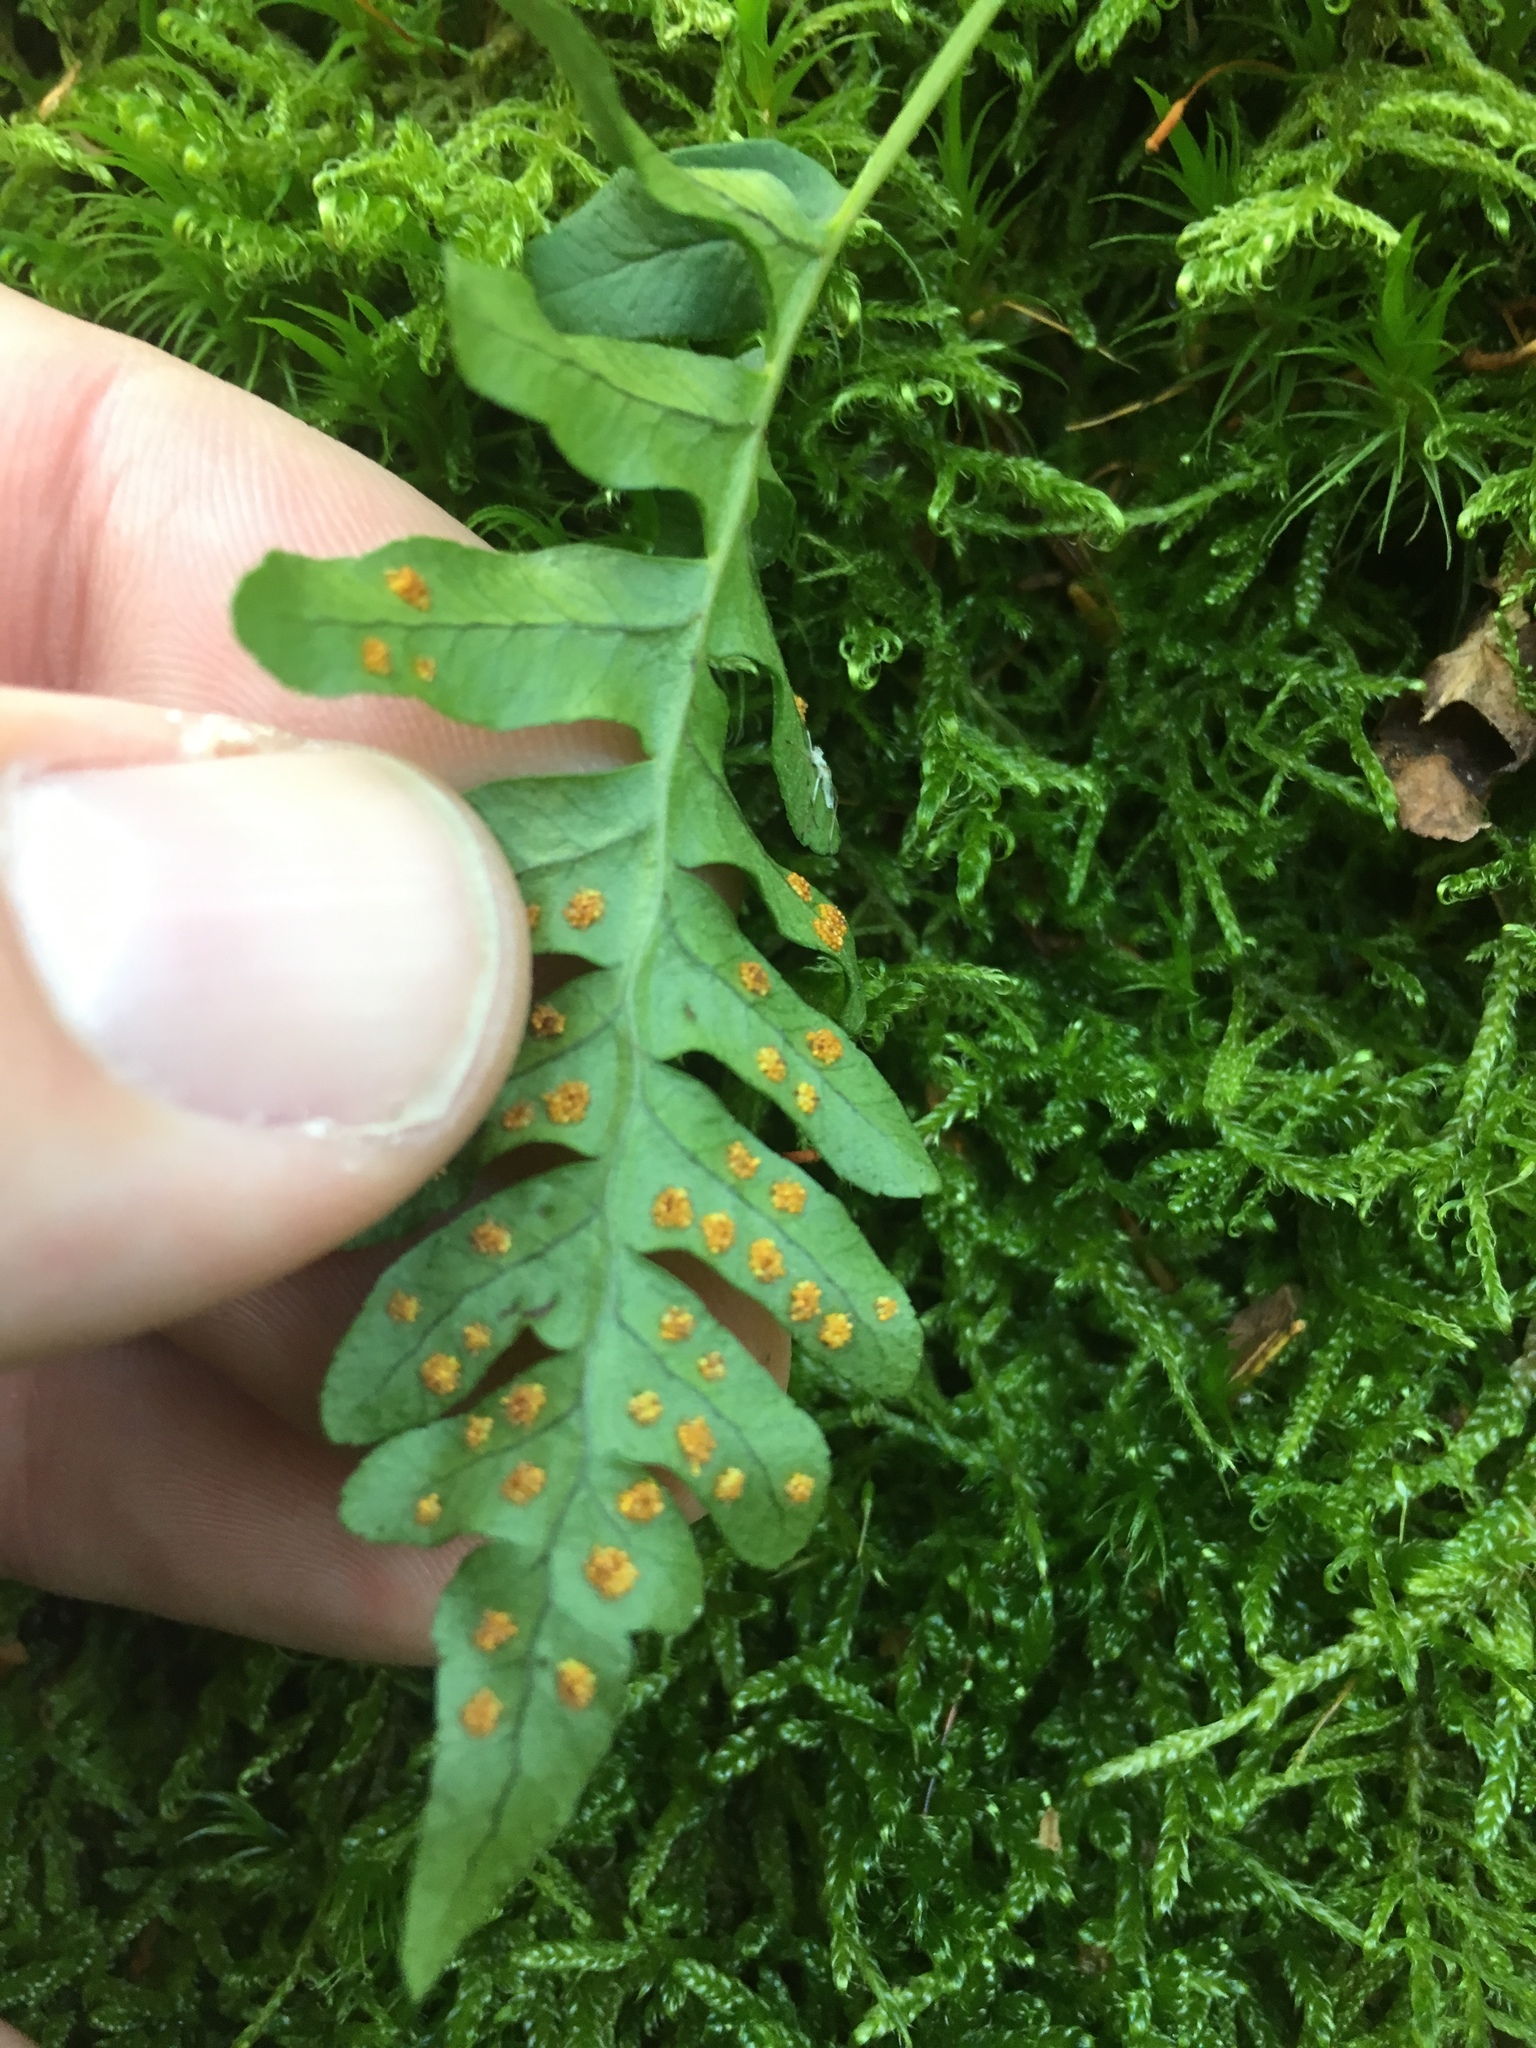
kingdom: Plantae
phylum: Tracheophyta
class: Polypodiopsida
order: Polypodiales
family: Polypodiaceae
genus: Polypodium
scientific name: Polypodium vulgare
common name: Common polypody
